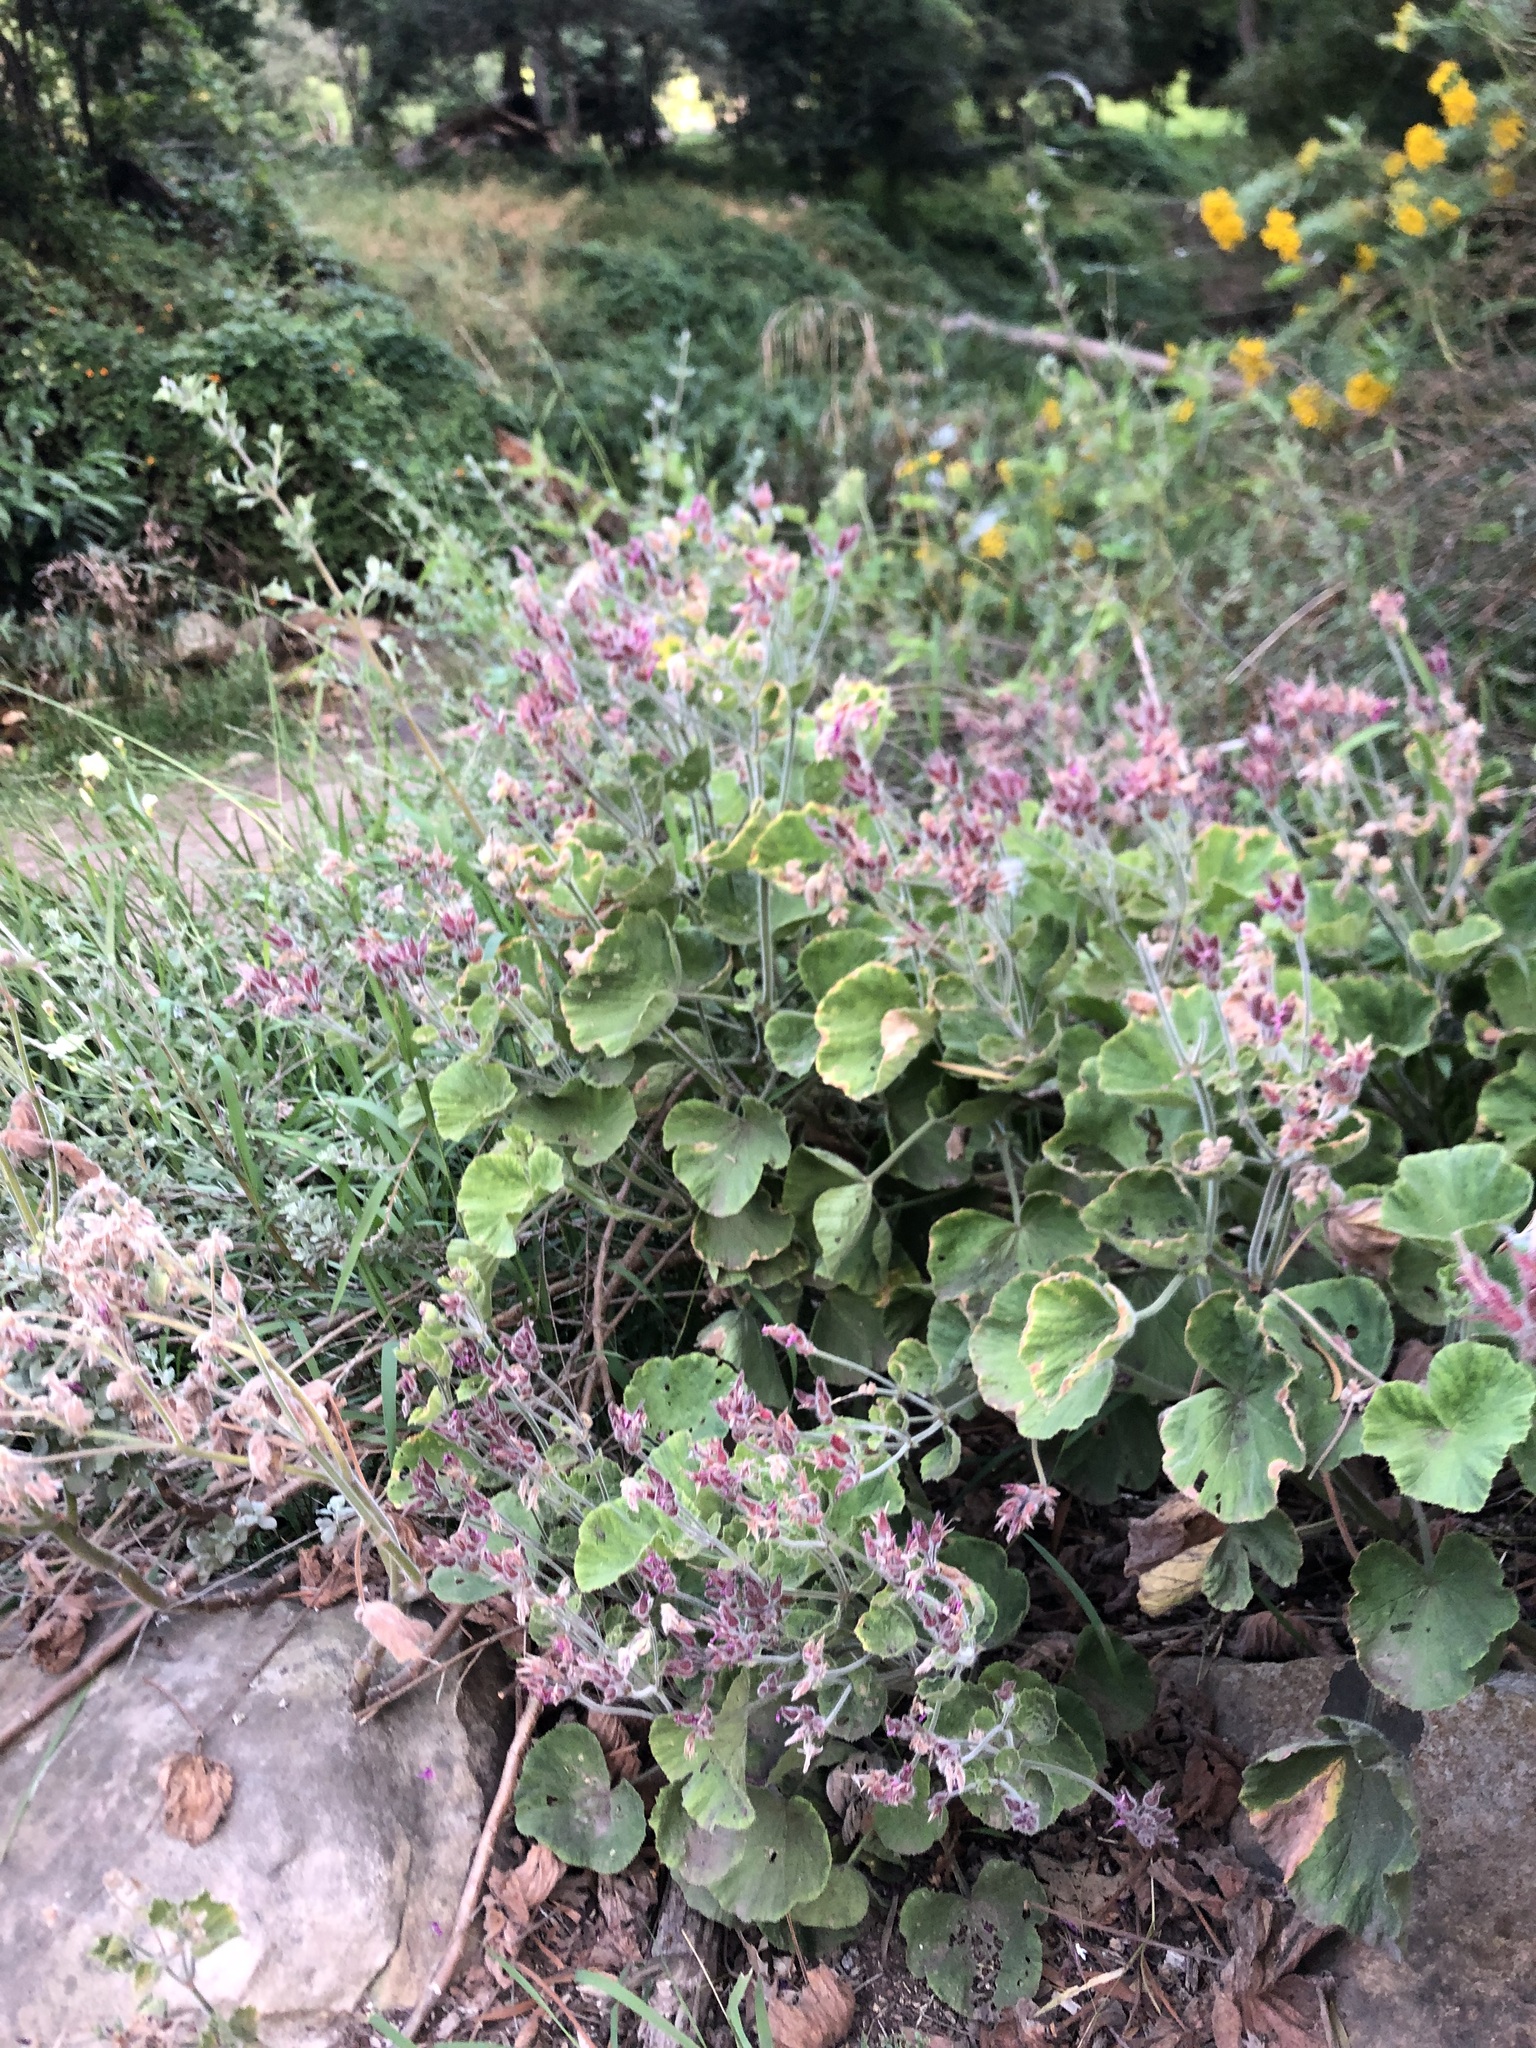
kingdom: Plantae
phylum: Tracheophyta
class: Magnoliopsida
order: Geraniales
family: Geraniaceae
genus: Pelargonium
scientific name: Pelargonium cucullatum
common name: Tree pelargonium
